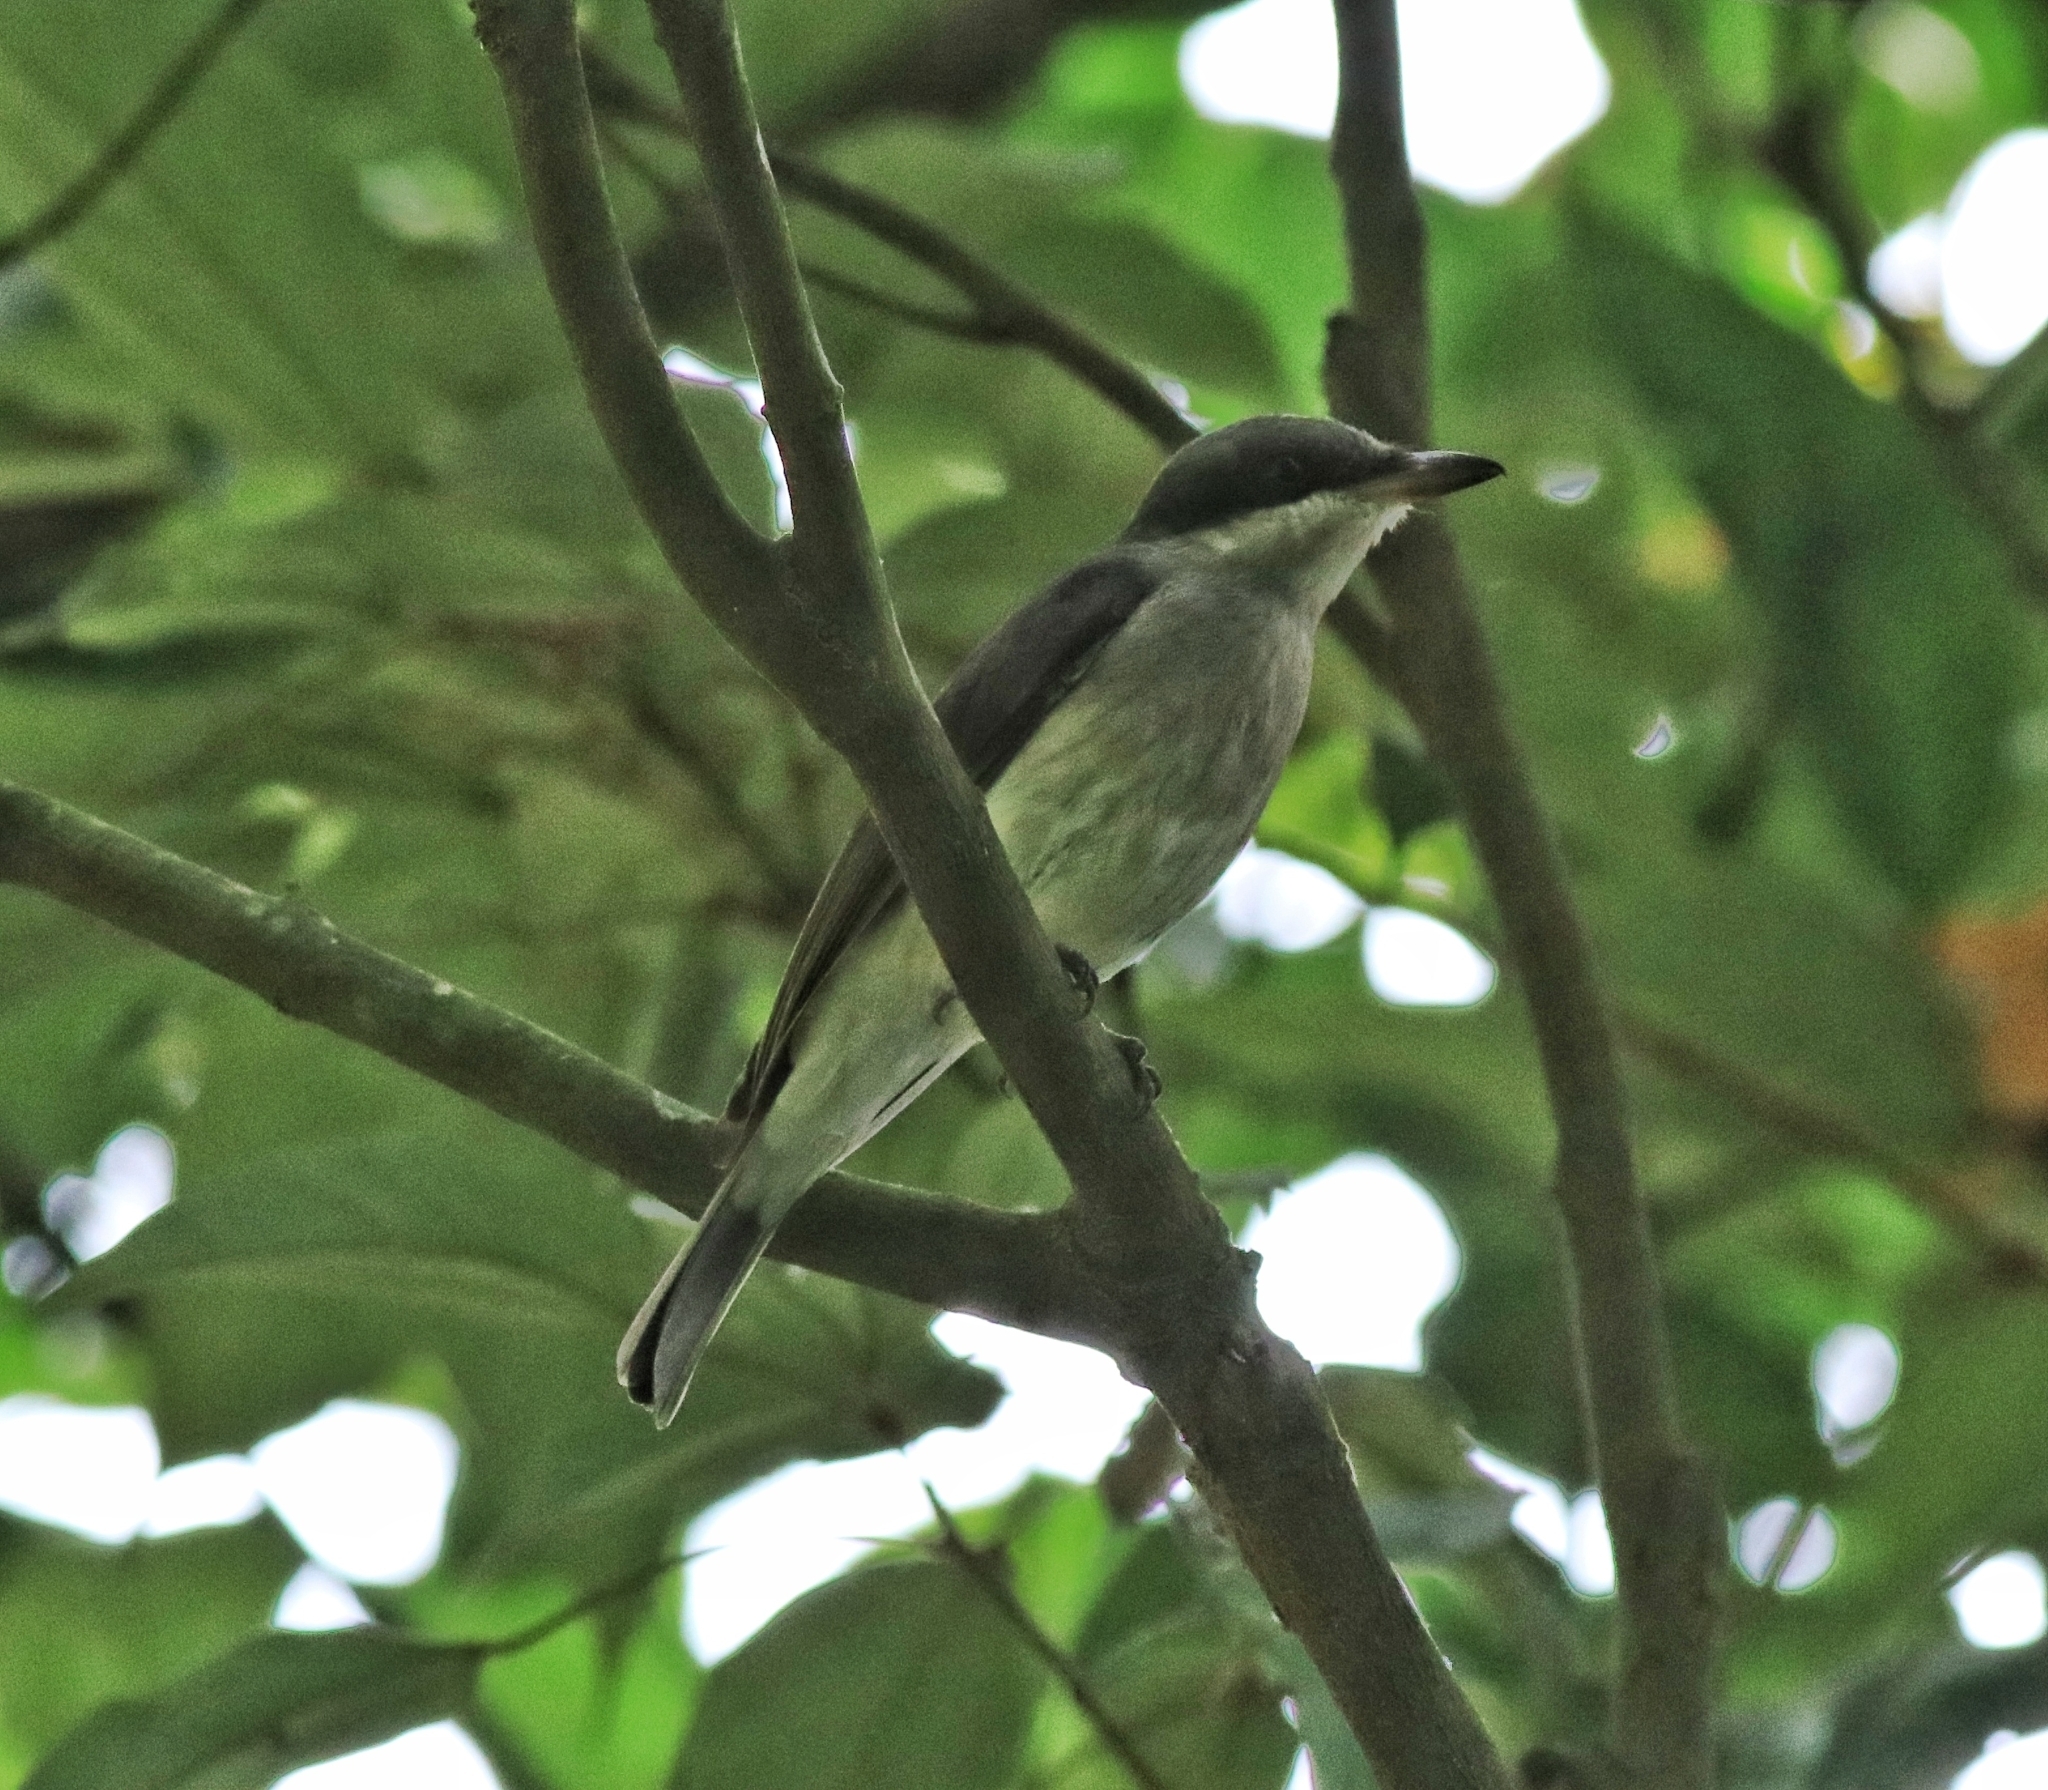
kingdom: Animalia
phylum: Chordata
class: Aves
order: Passeriformes
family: Tephrodornithidae
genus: Tephrodornis
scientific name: Tephrodornis sylvicola
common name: Malabar woodshrike
